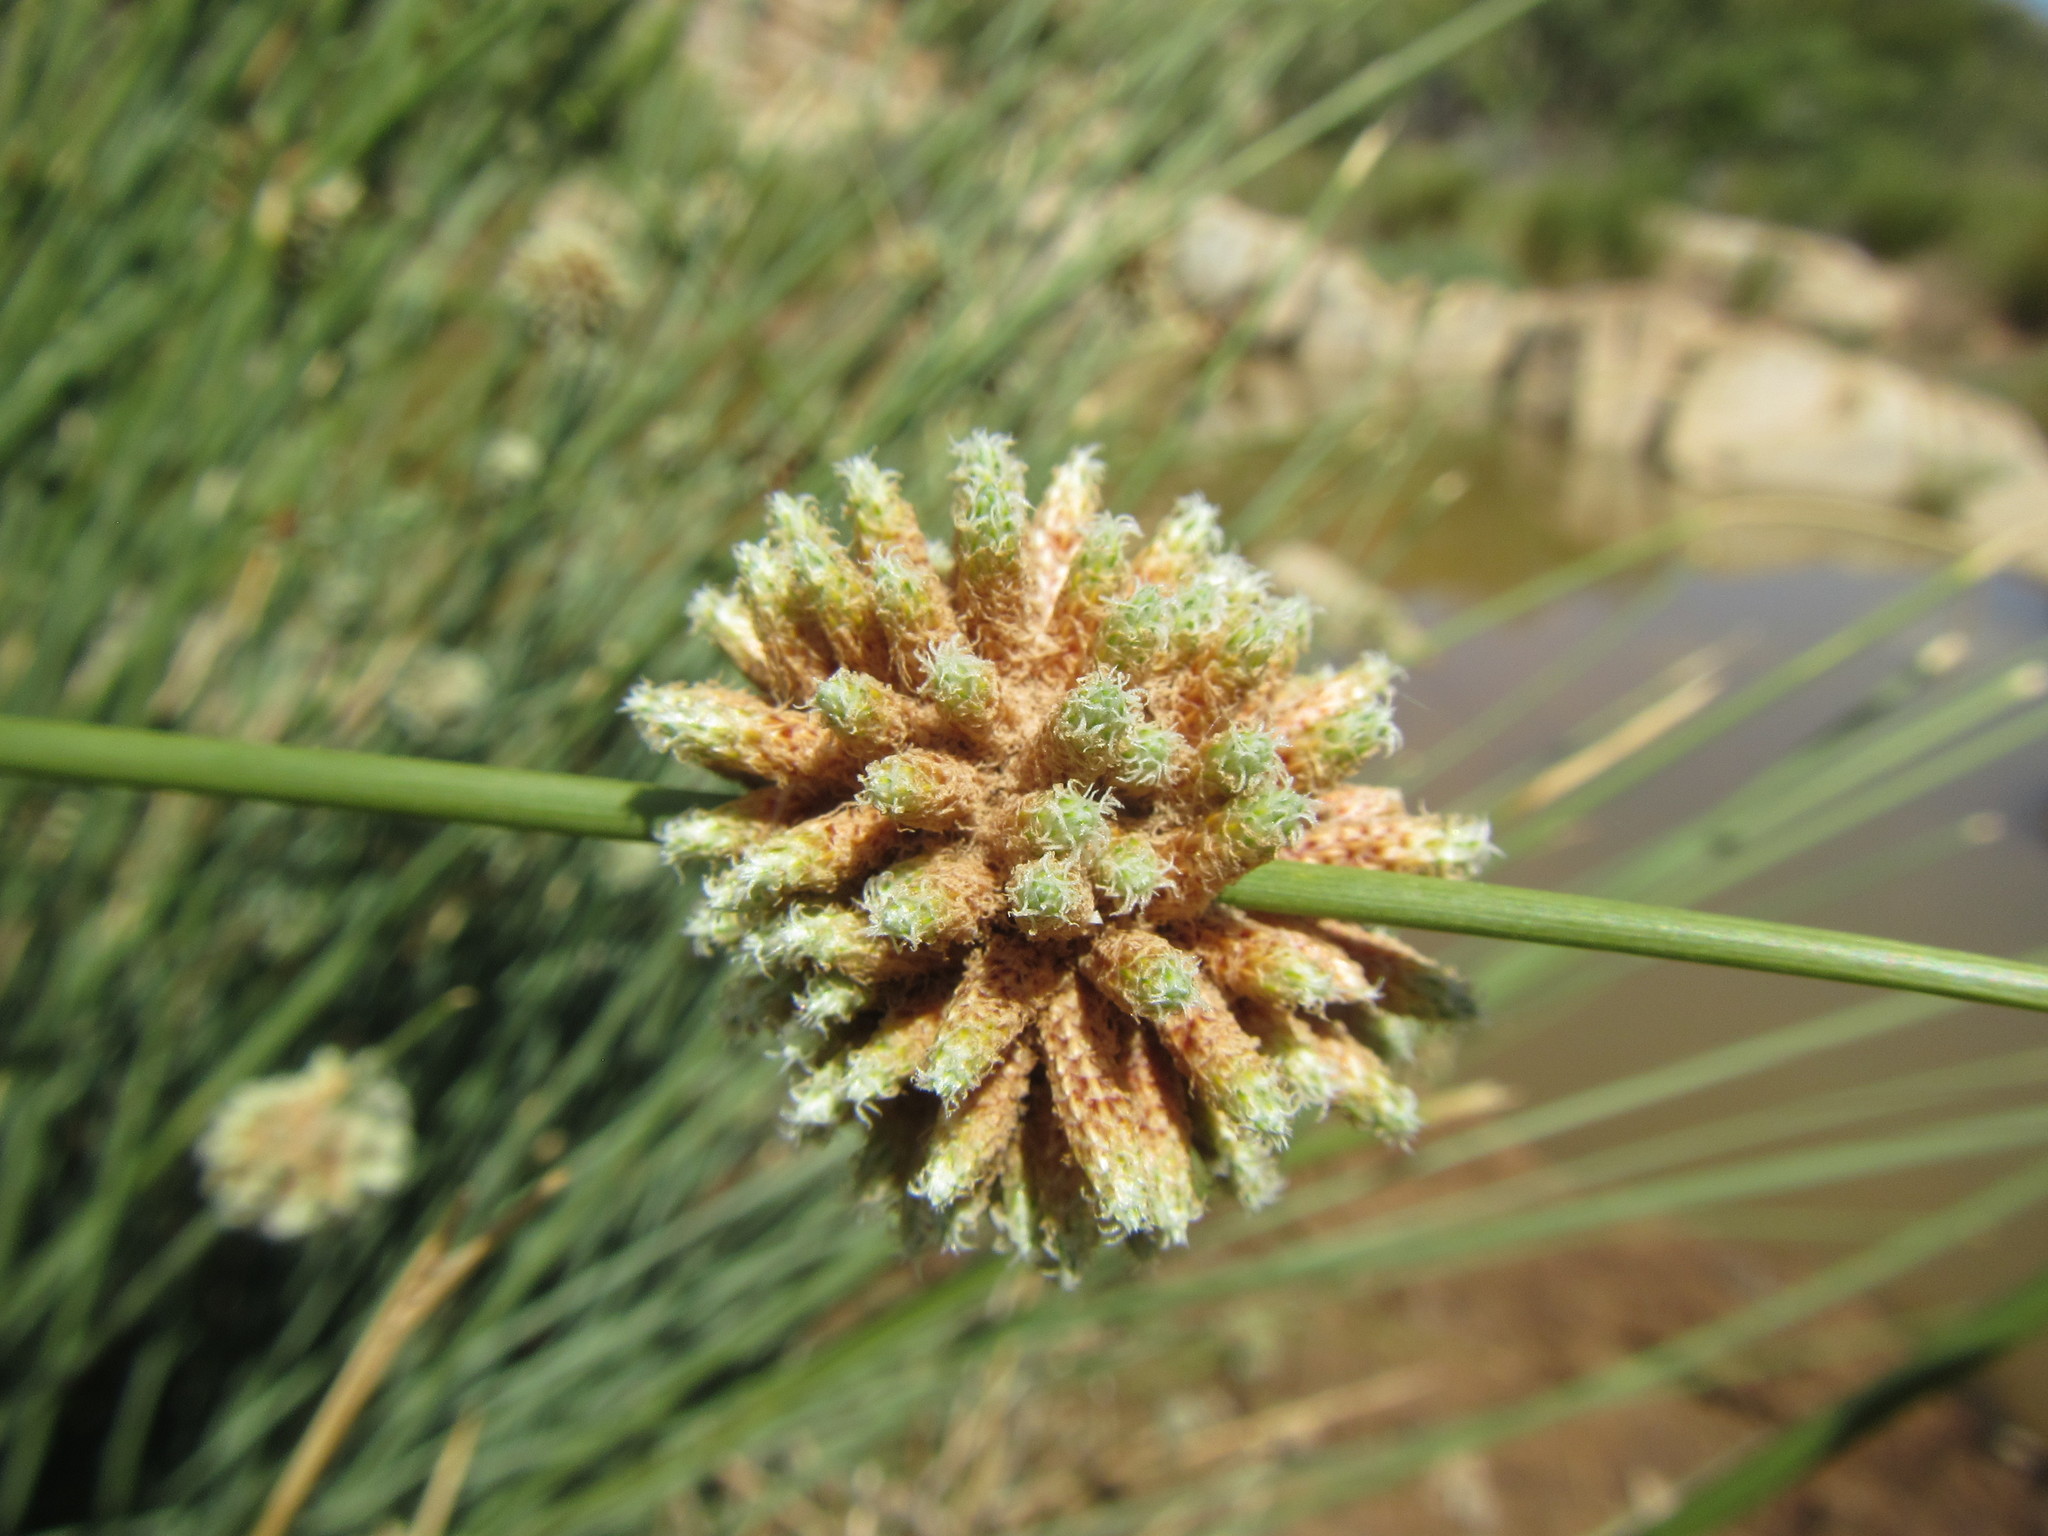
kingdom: Plantae
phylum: Tracheophyta
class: Liliopsida
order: Poales
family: Cyperaceae
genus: Afroscirpoides
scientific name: Afroscirpoides dioeca
